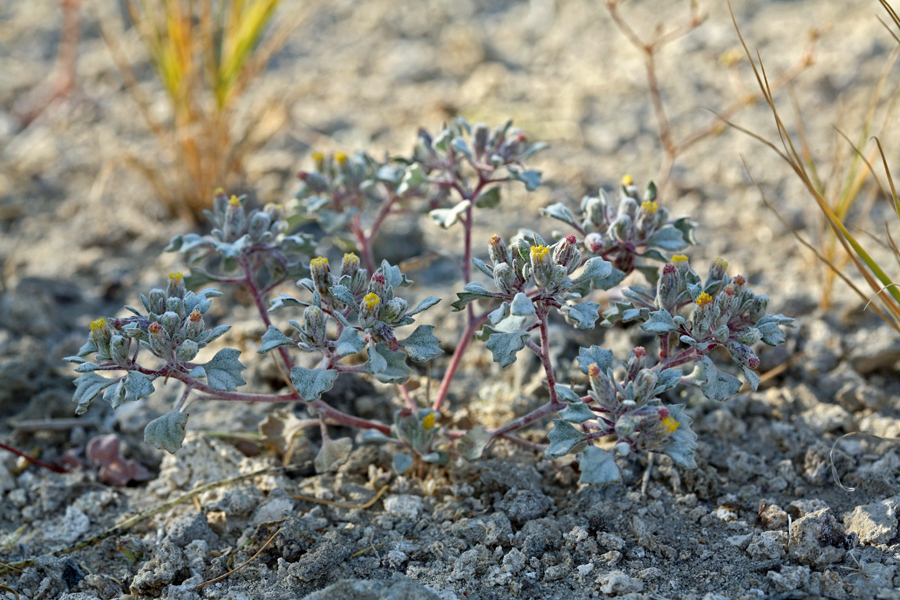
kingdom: Plantae
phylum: Tracheophyta
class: Magnoliopsida
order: Asterales
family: Asteraceae
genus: Psathyrotes
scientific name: Psathyrotes annua
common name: Mealy rosettes
